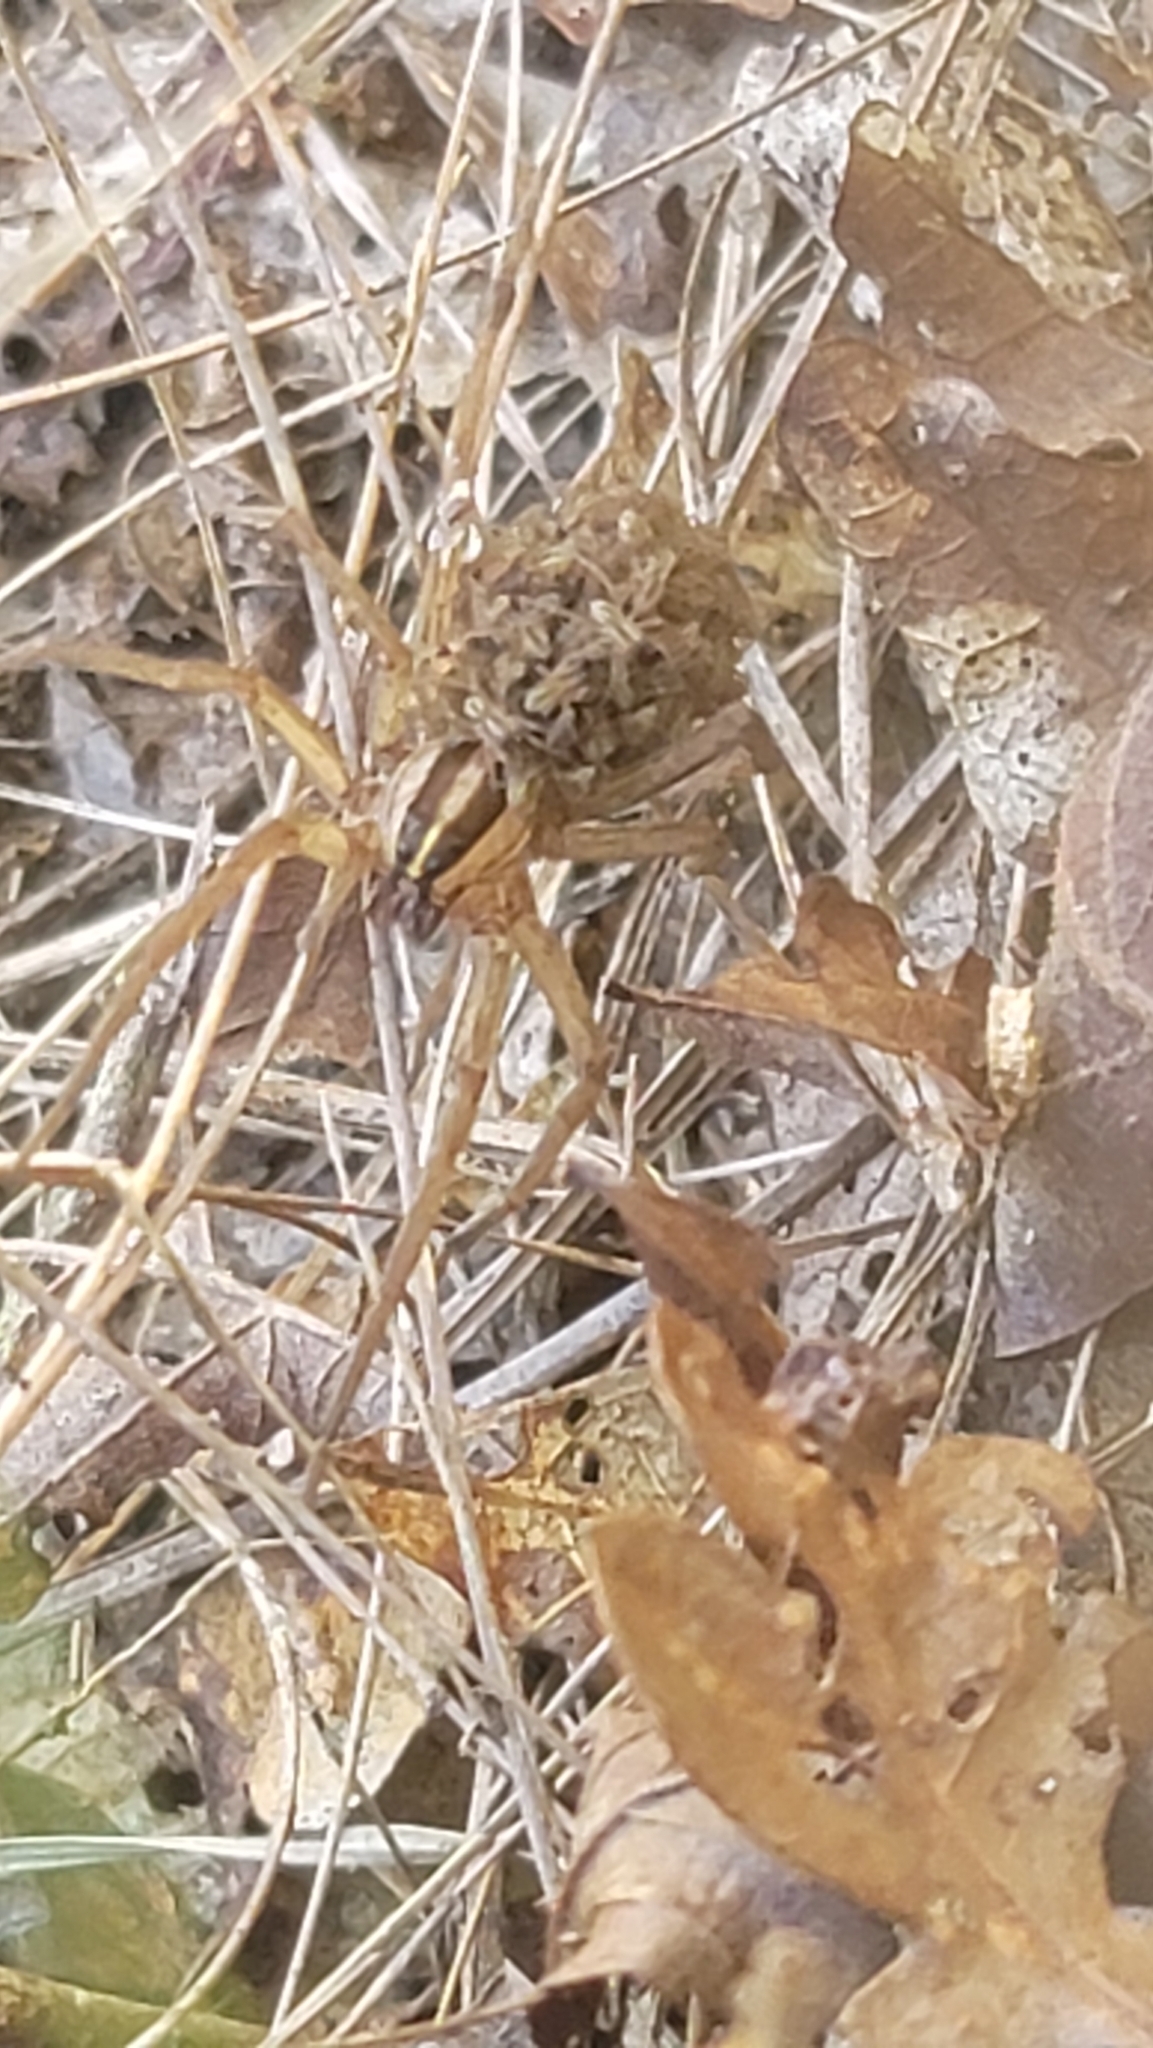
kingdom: Animalia
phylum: Arthropoda
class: Arachnida
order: Araneae
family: Lycosidae
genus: Rabidosa
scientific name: Rabidosa rabida
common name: Rabid wolf spider
